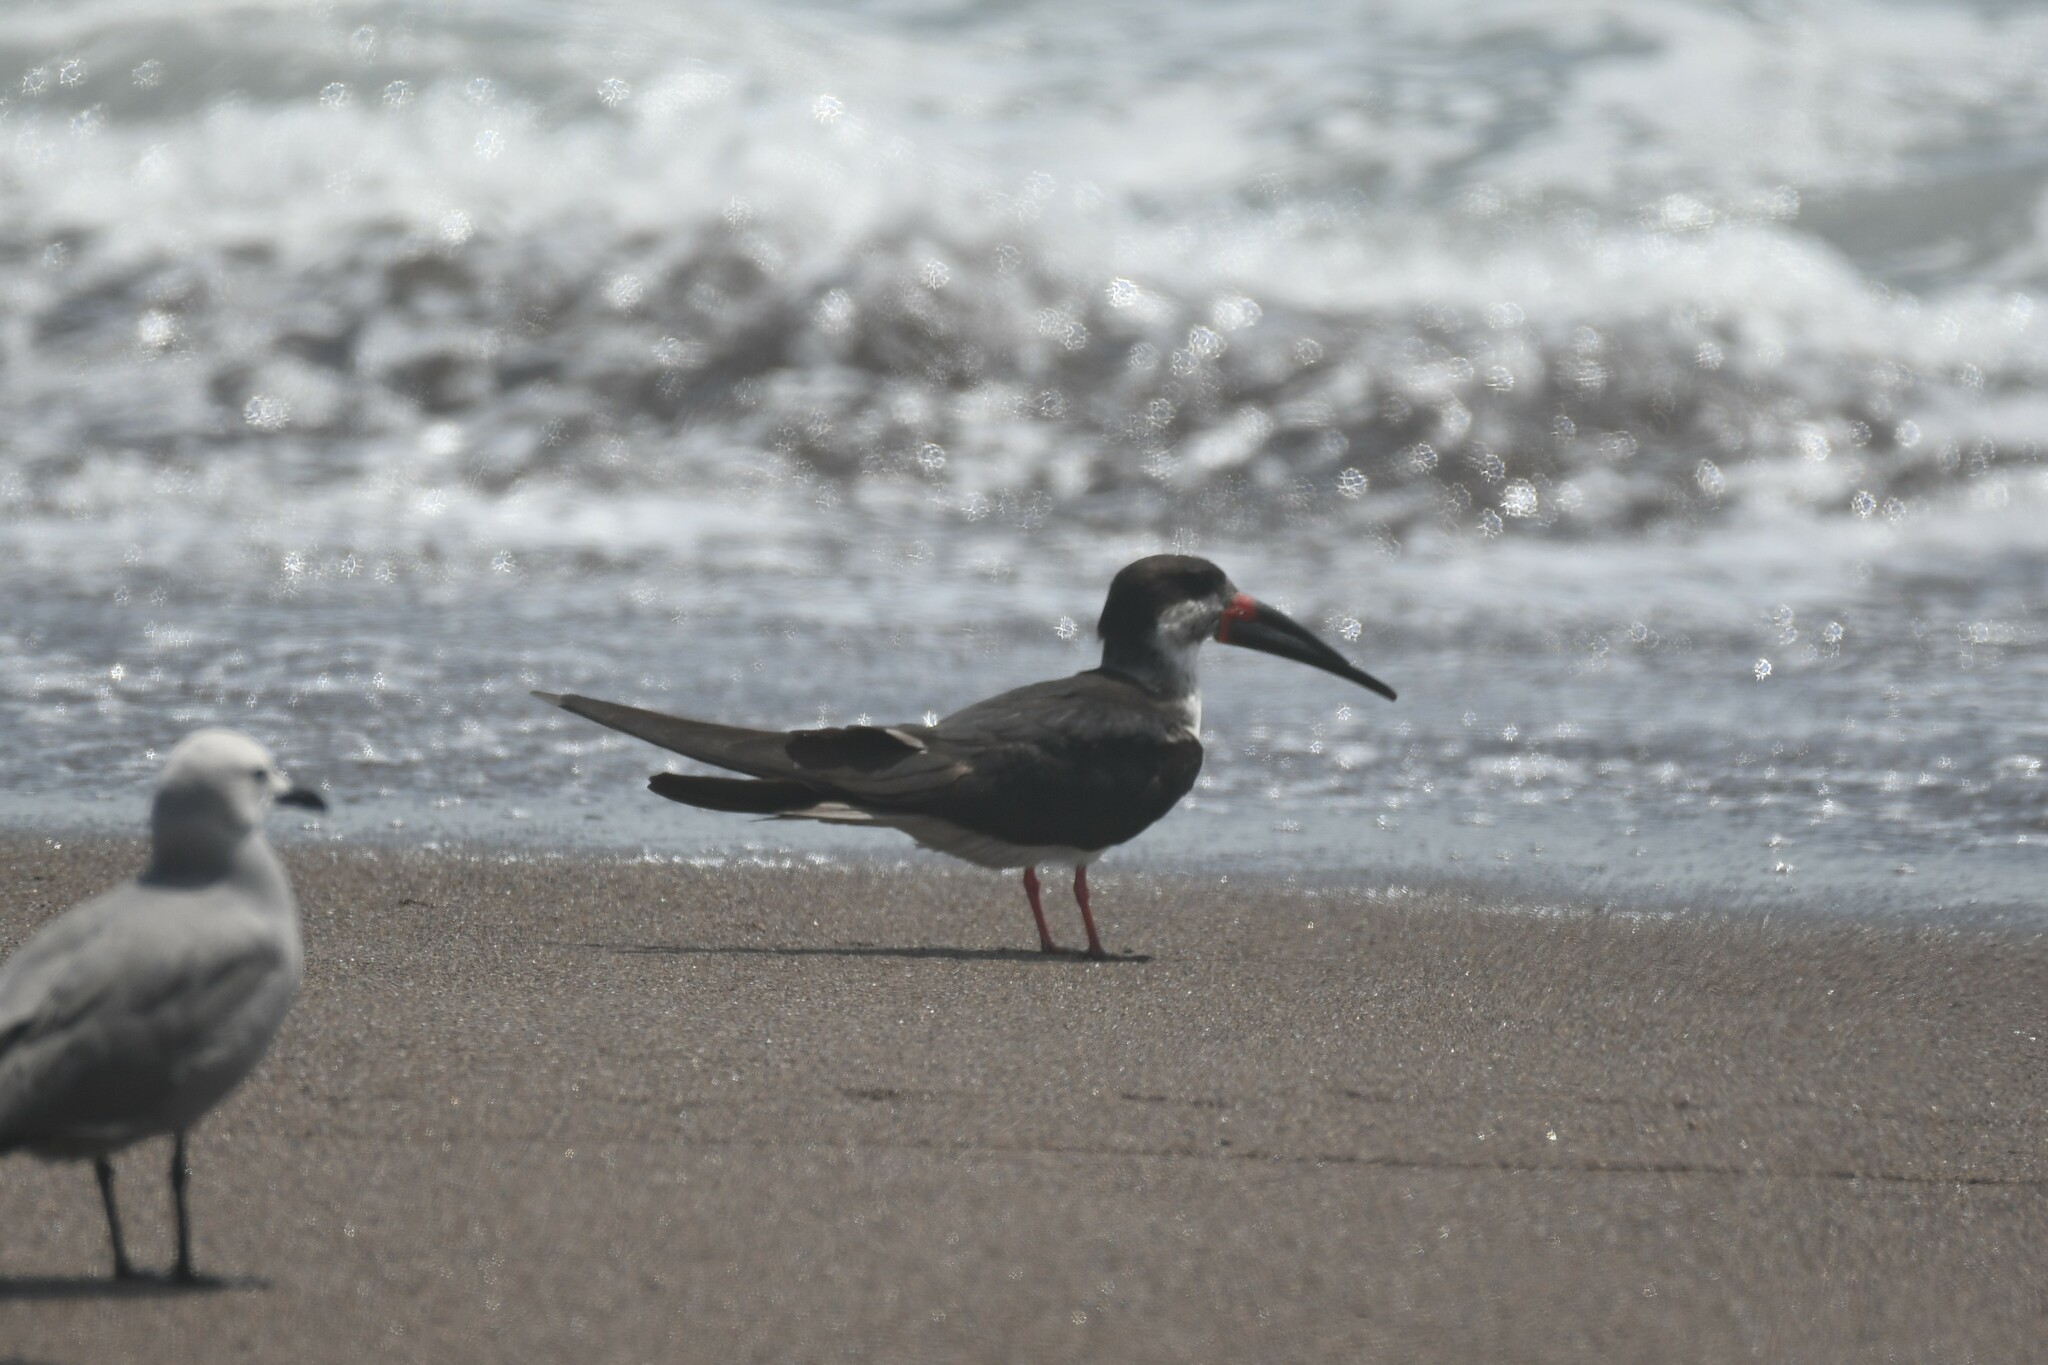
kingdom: Animalia
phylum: Chordata
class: Aves
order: Charadriiformes
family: Laridae
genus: Rynchops
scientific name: Rynchops niger
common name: Black skimmer
